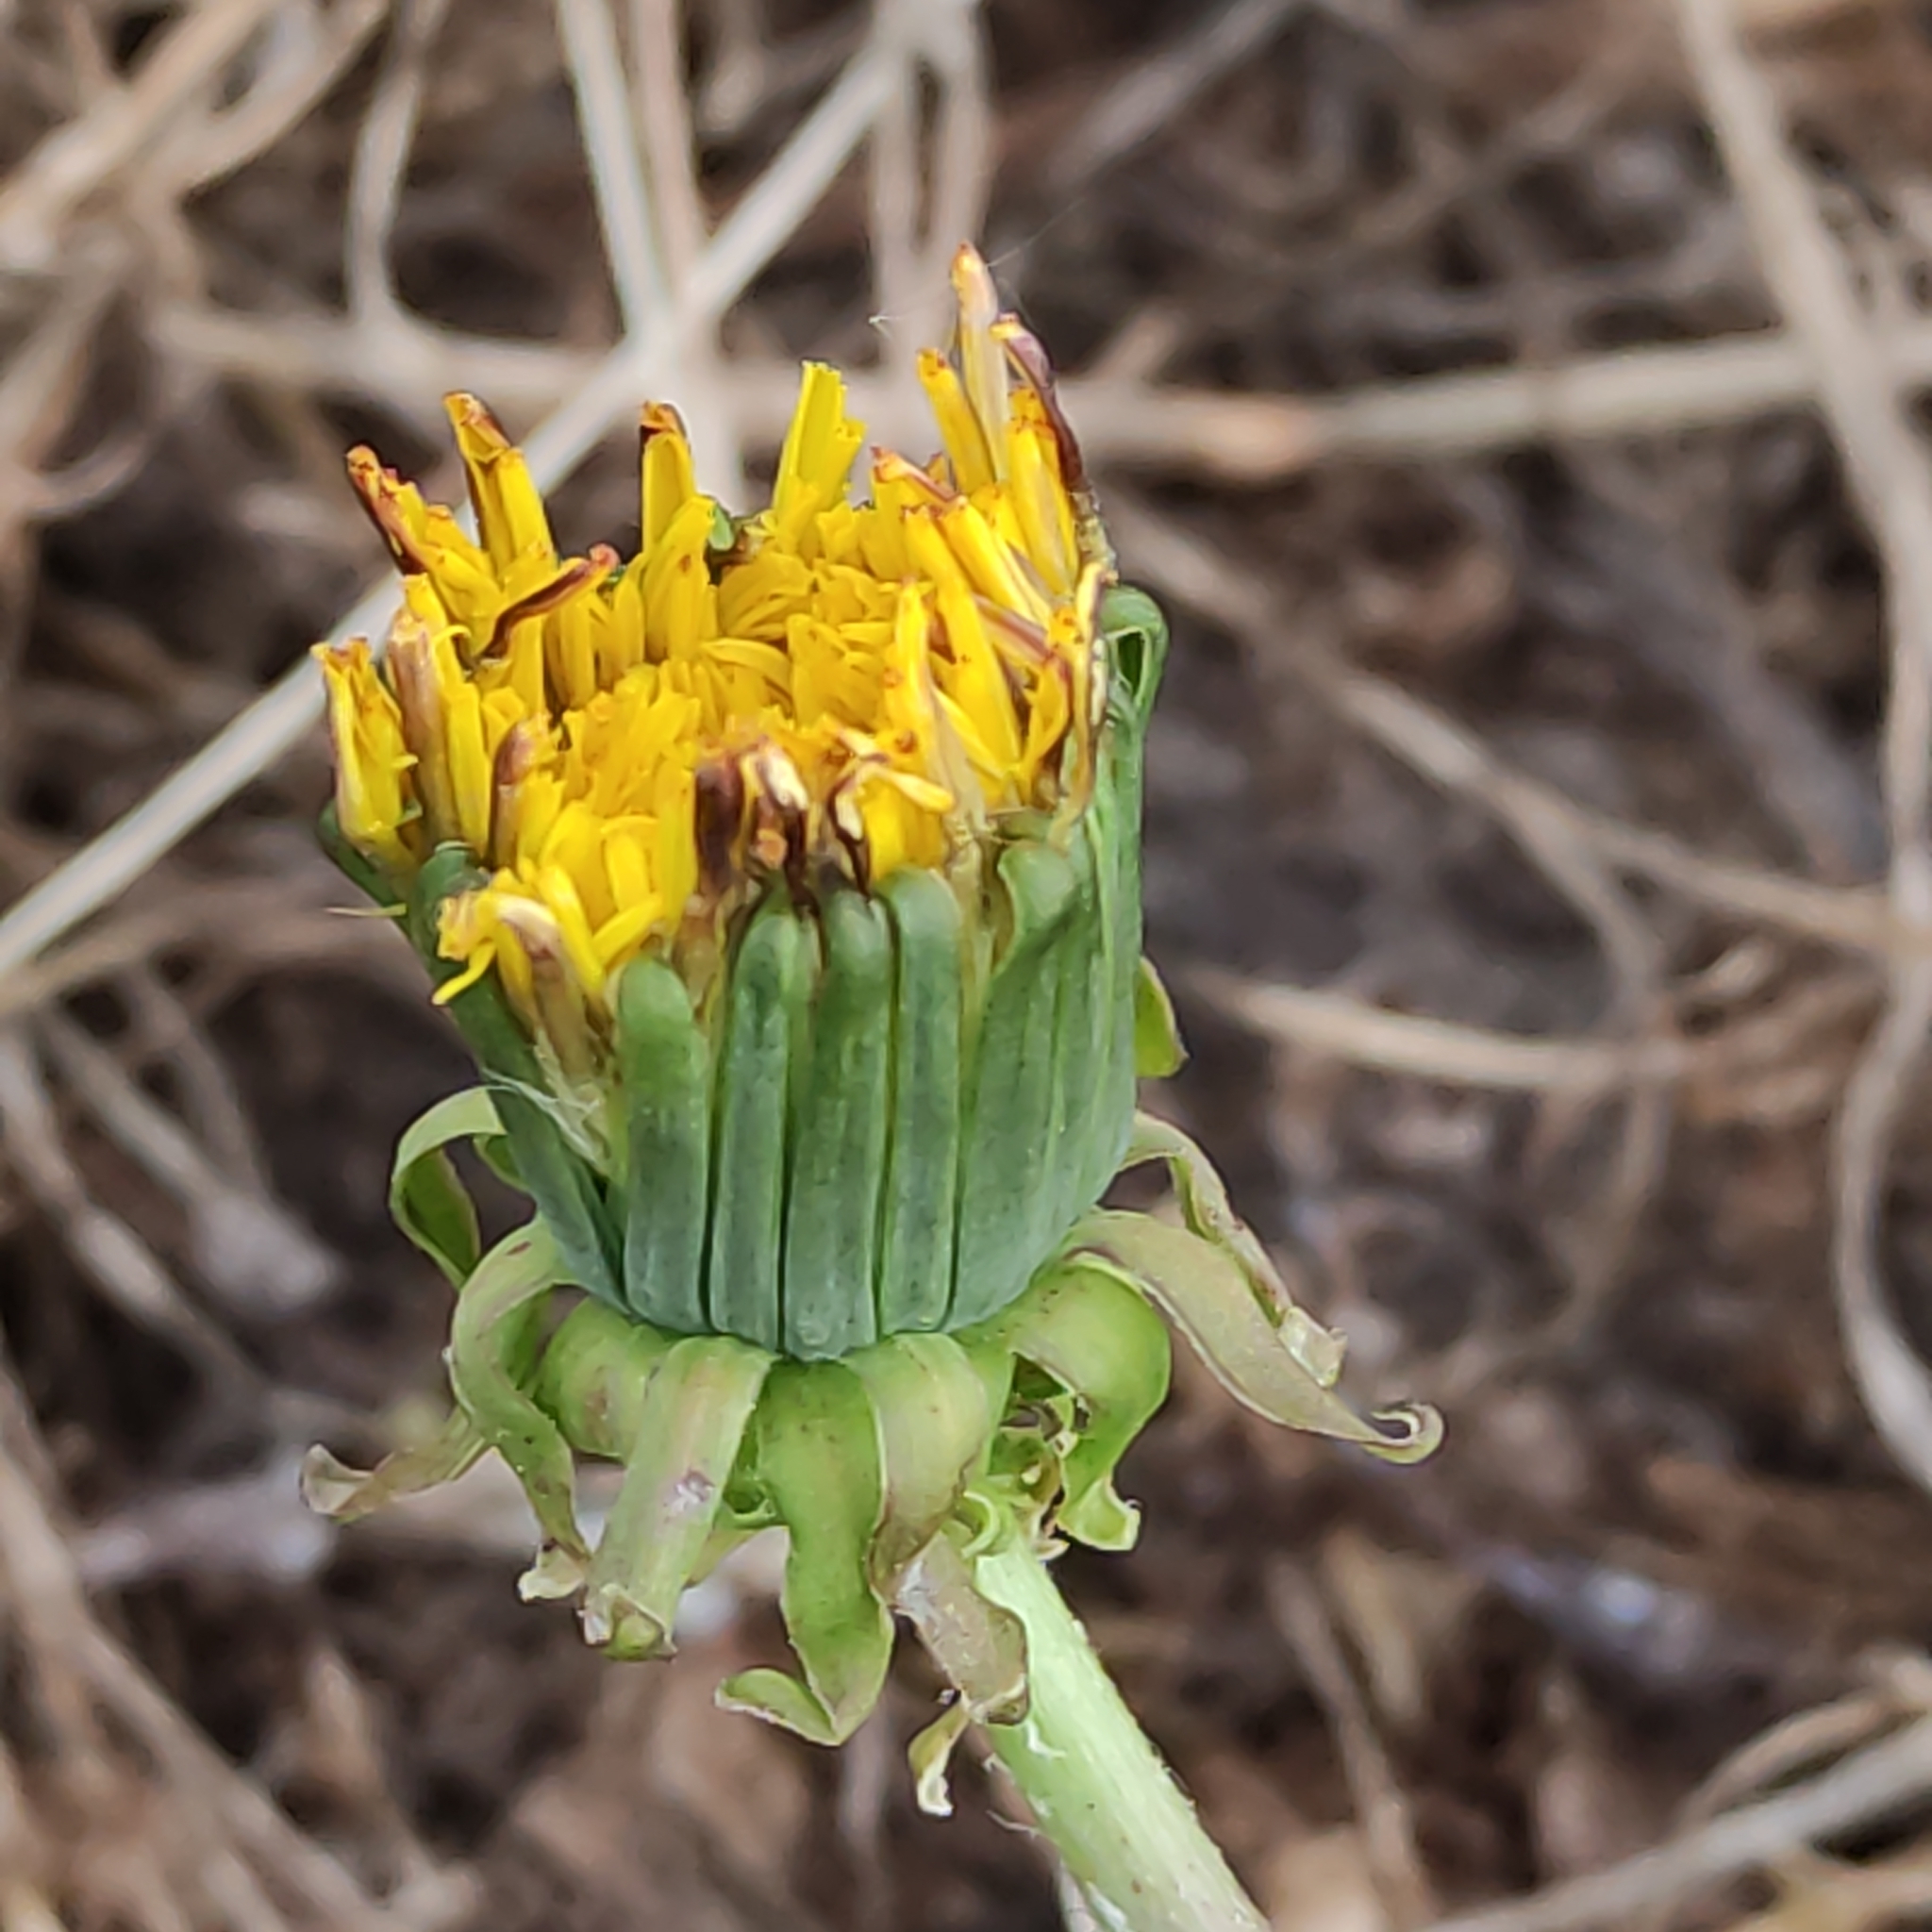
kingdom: Plantae
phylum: Tracheophyta
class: Magnoliopsida
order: Asterales
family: Asteraceae
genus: Taraxacum
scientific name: Taraxacum officinale
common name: Common dandelion
